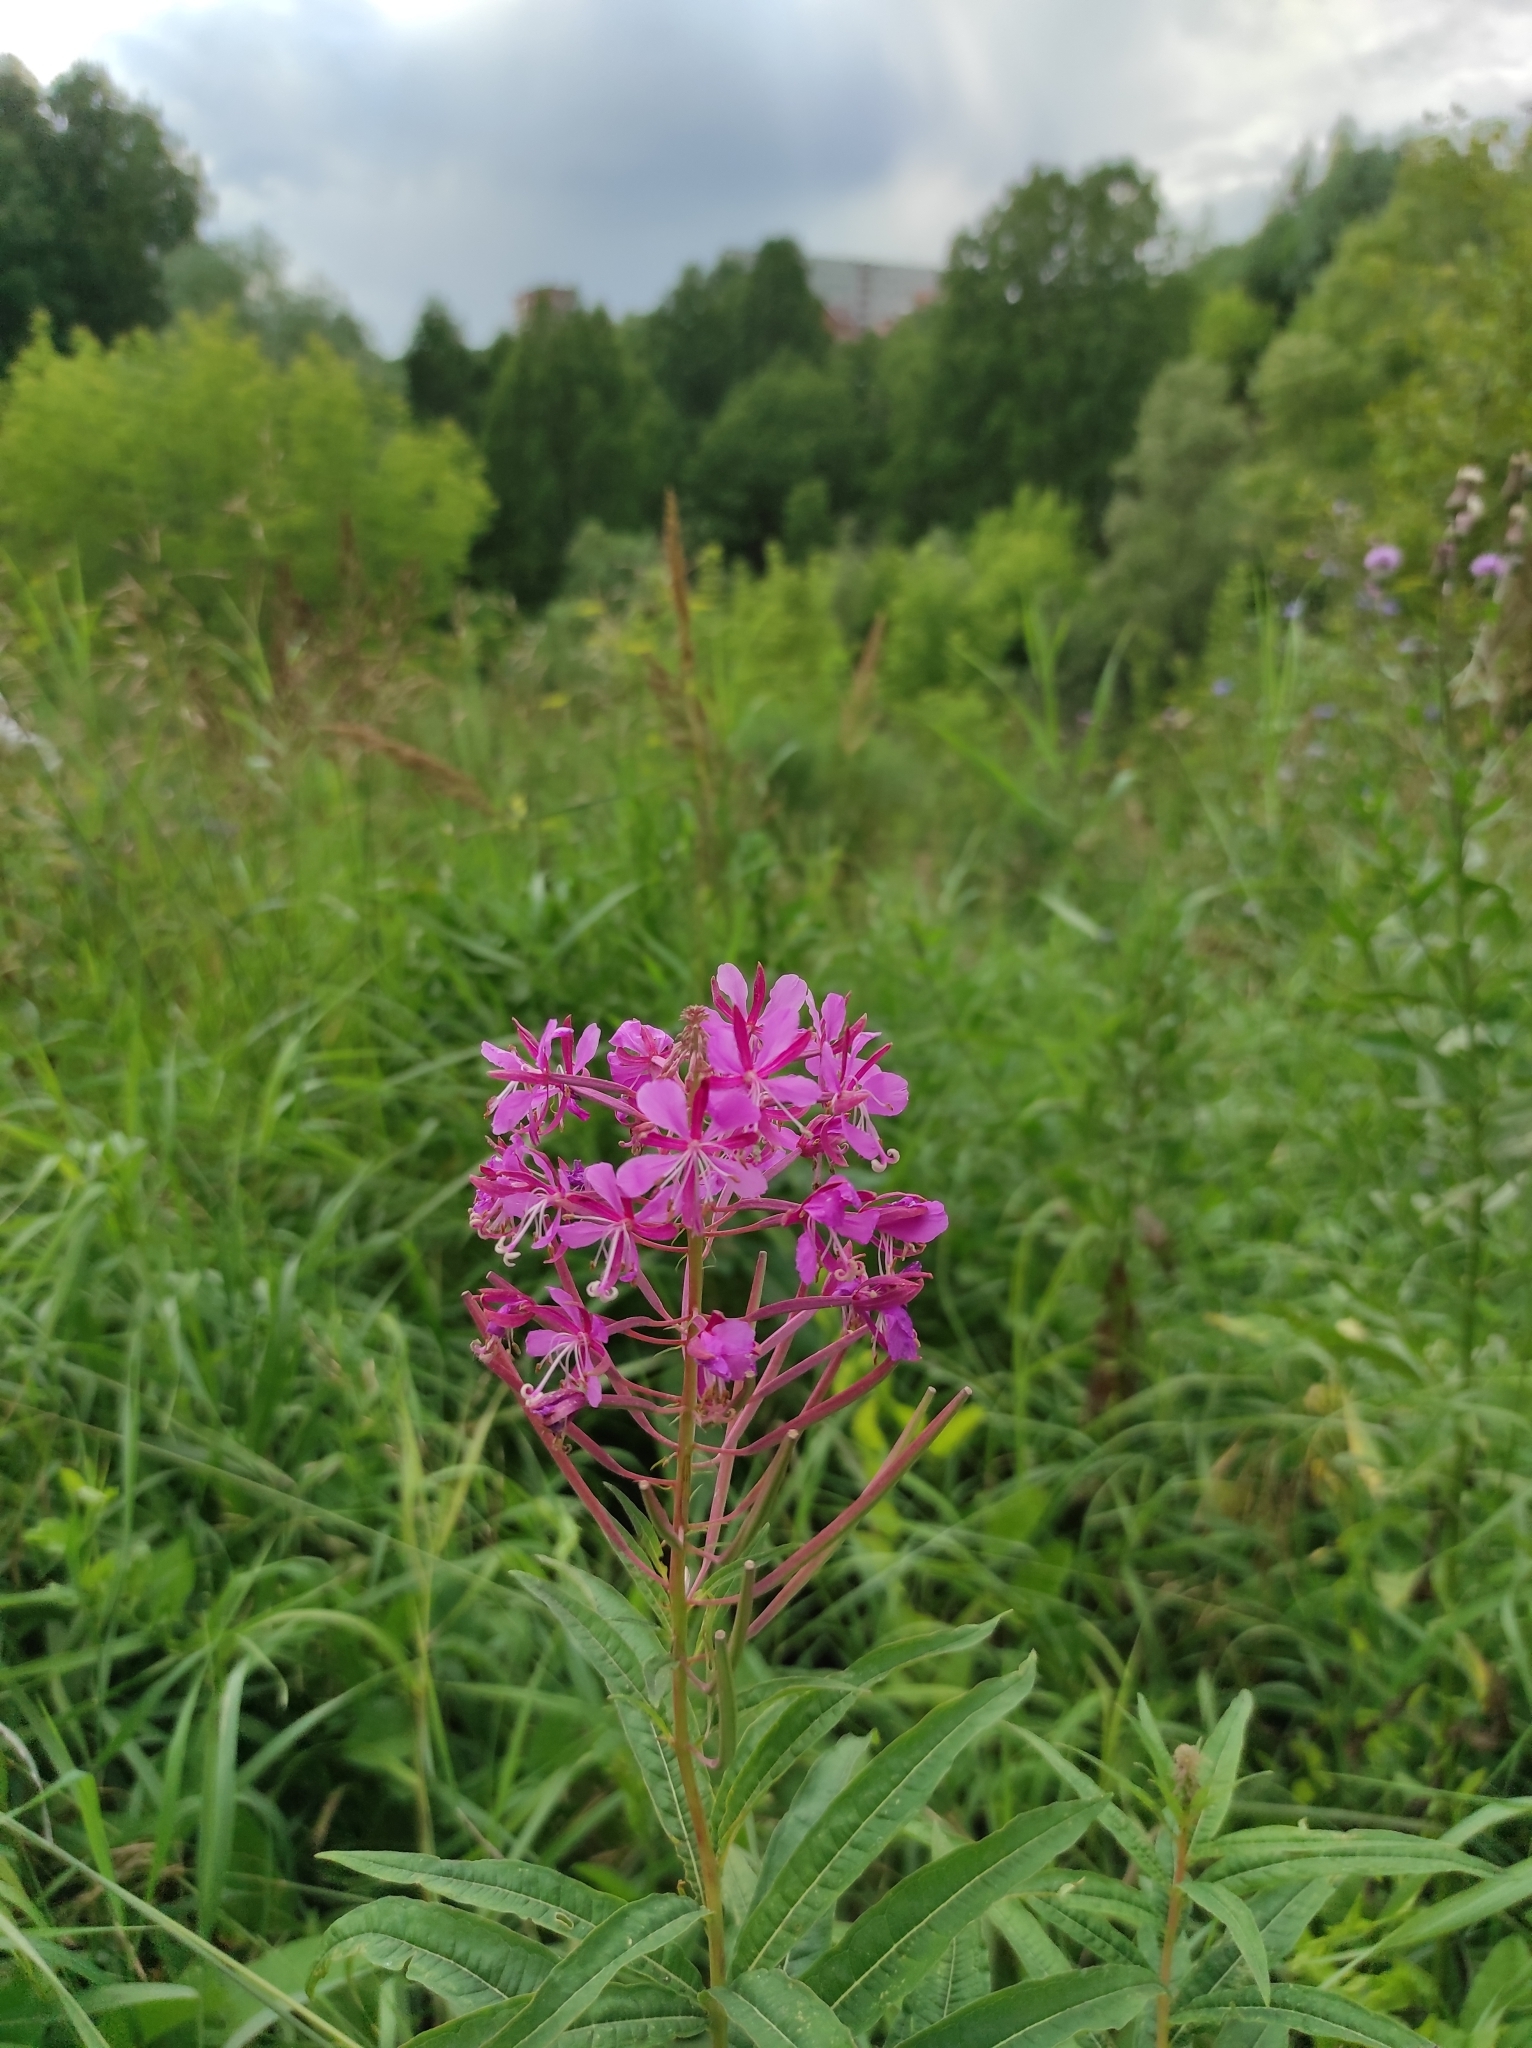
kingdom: Plantae
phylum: Tracheophyta
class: Magnoliopsida
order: Myrtales
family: Onagraceae
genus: Chamaenerion
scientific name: Chamaenerion angustifolium
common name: Fireweed
